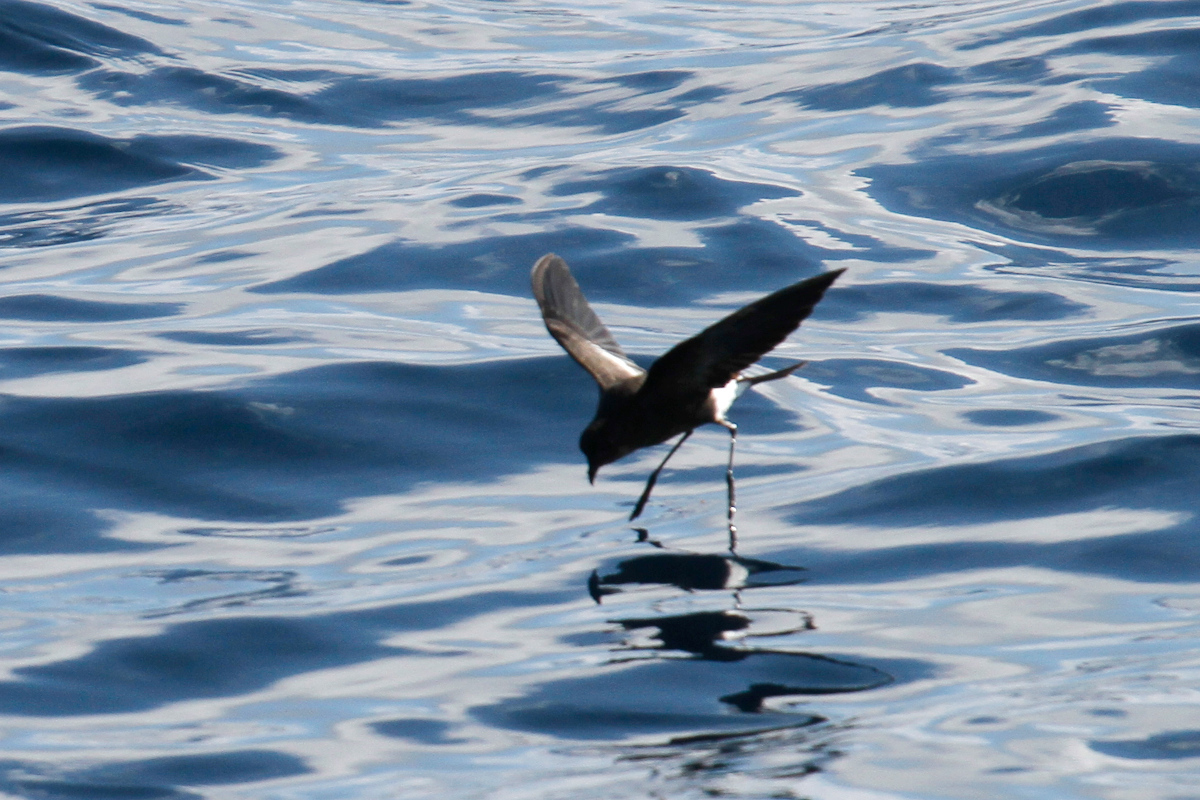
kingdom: Animalia
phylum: Chordata
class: Aves
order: Procellariiformes
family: Hydrobatidae
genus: Oceanites
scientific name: Oceanites oceanicus
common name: Wilson's storm petrel
